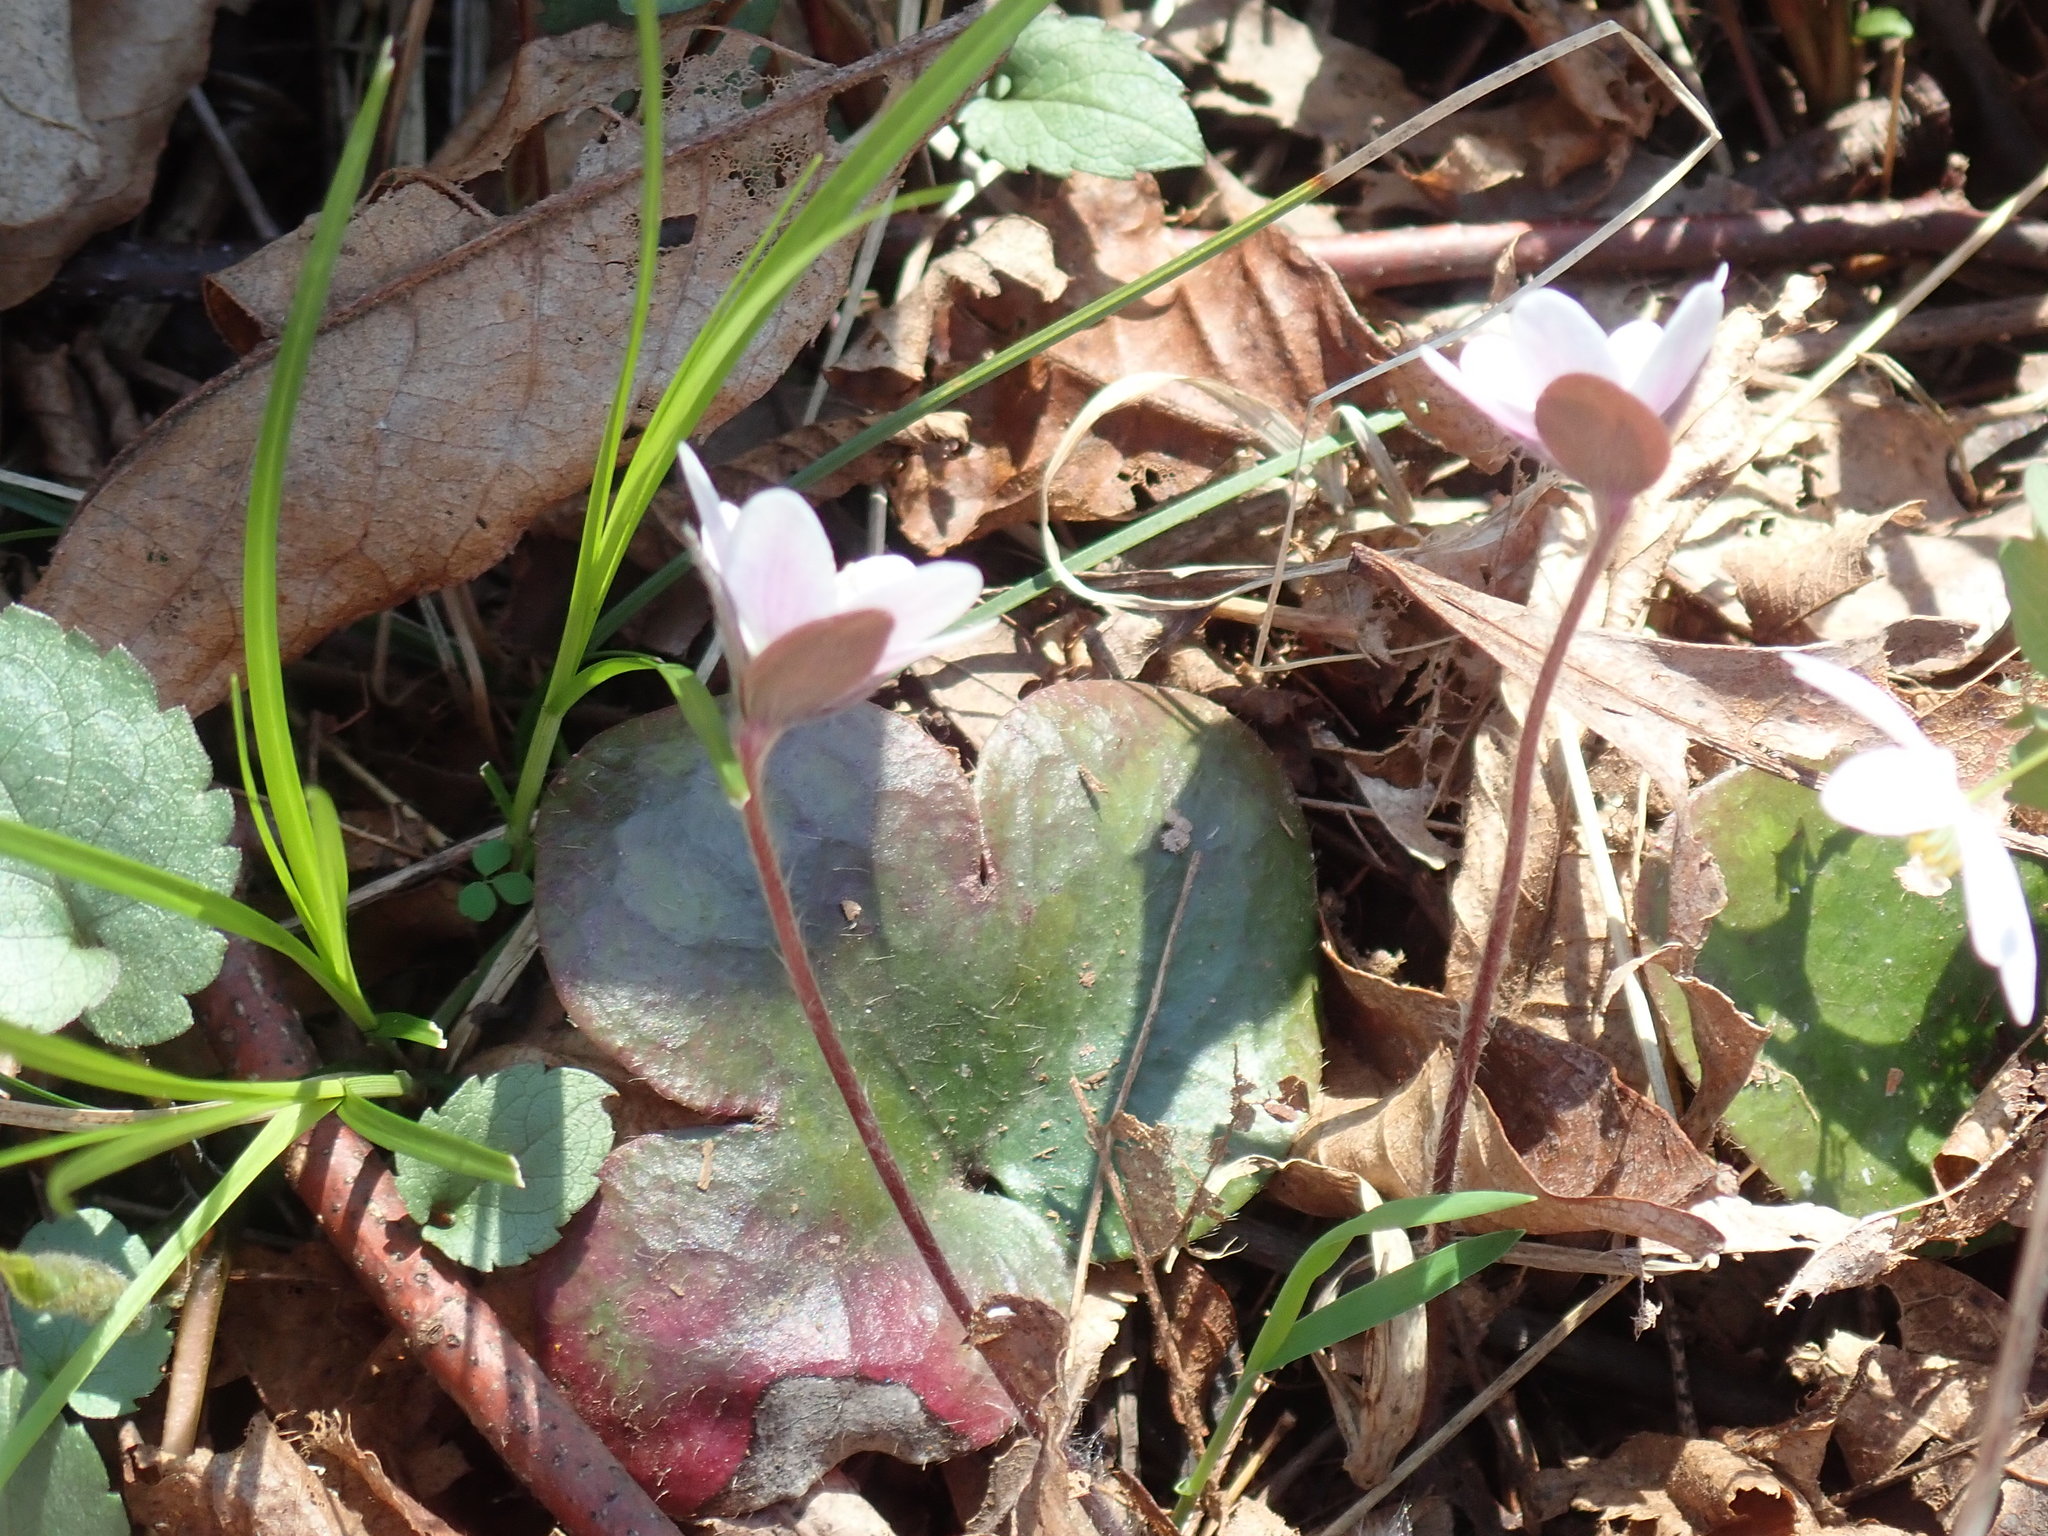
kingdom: Plantae
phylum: Tracheophyta
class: Magnoliopsida
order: Ranunculales
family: Ranunculaceae
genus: Hepatica
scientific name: Hepatica americana
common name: American hepatica
